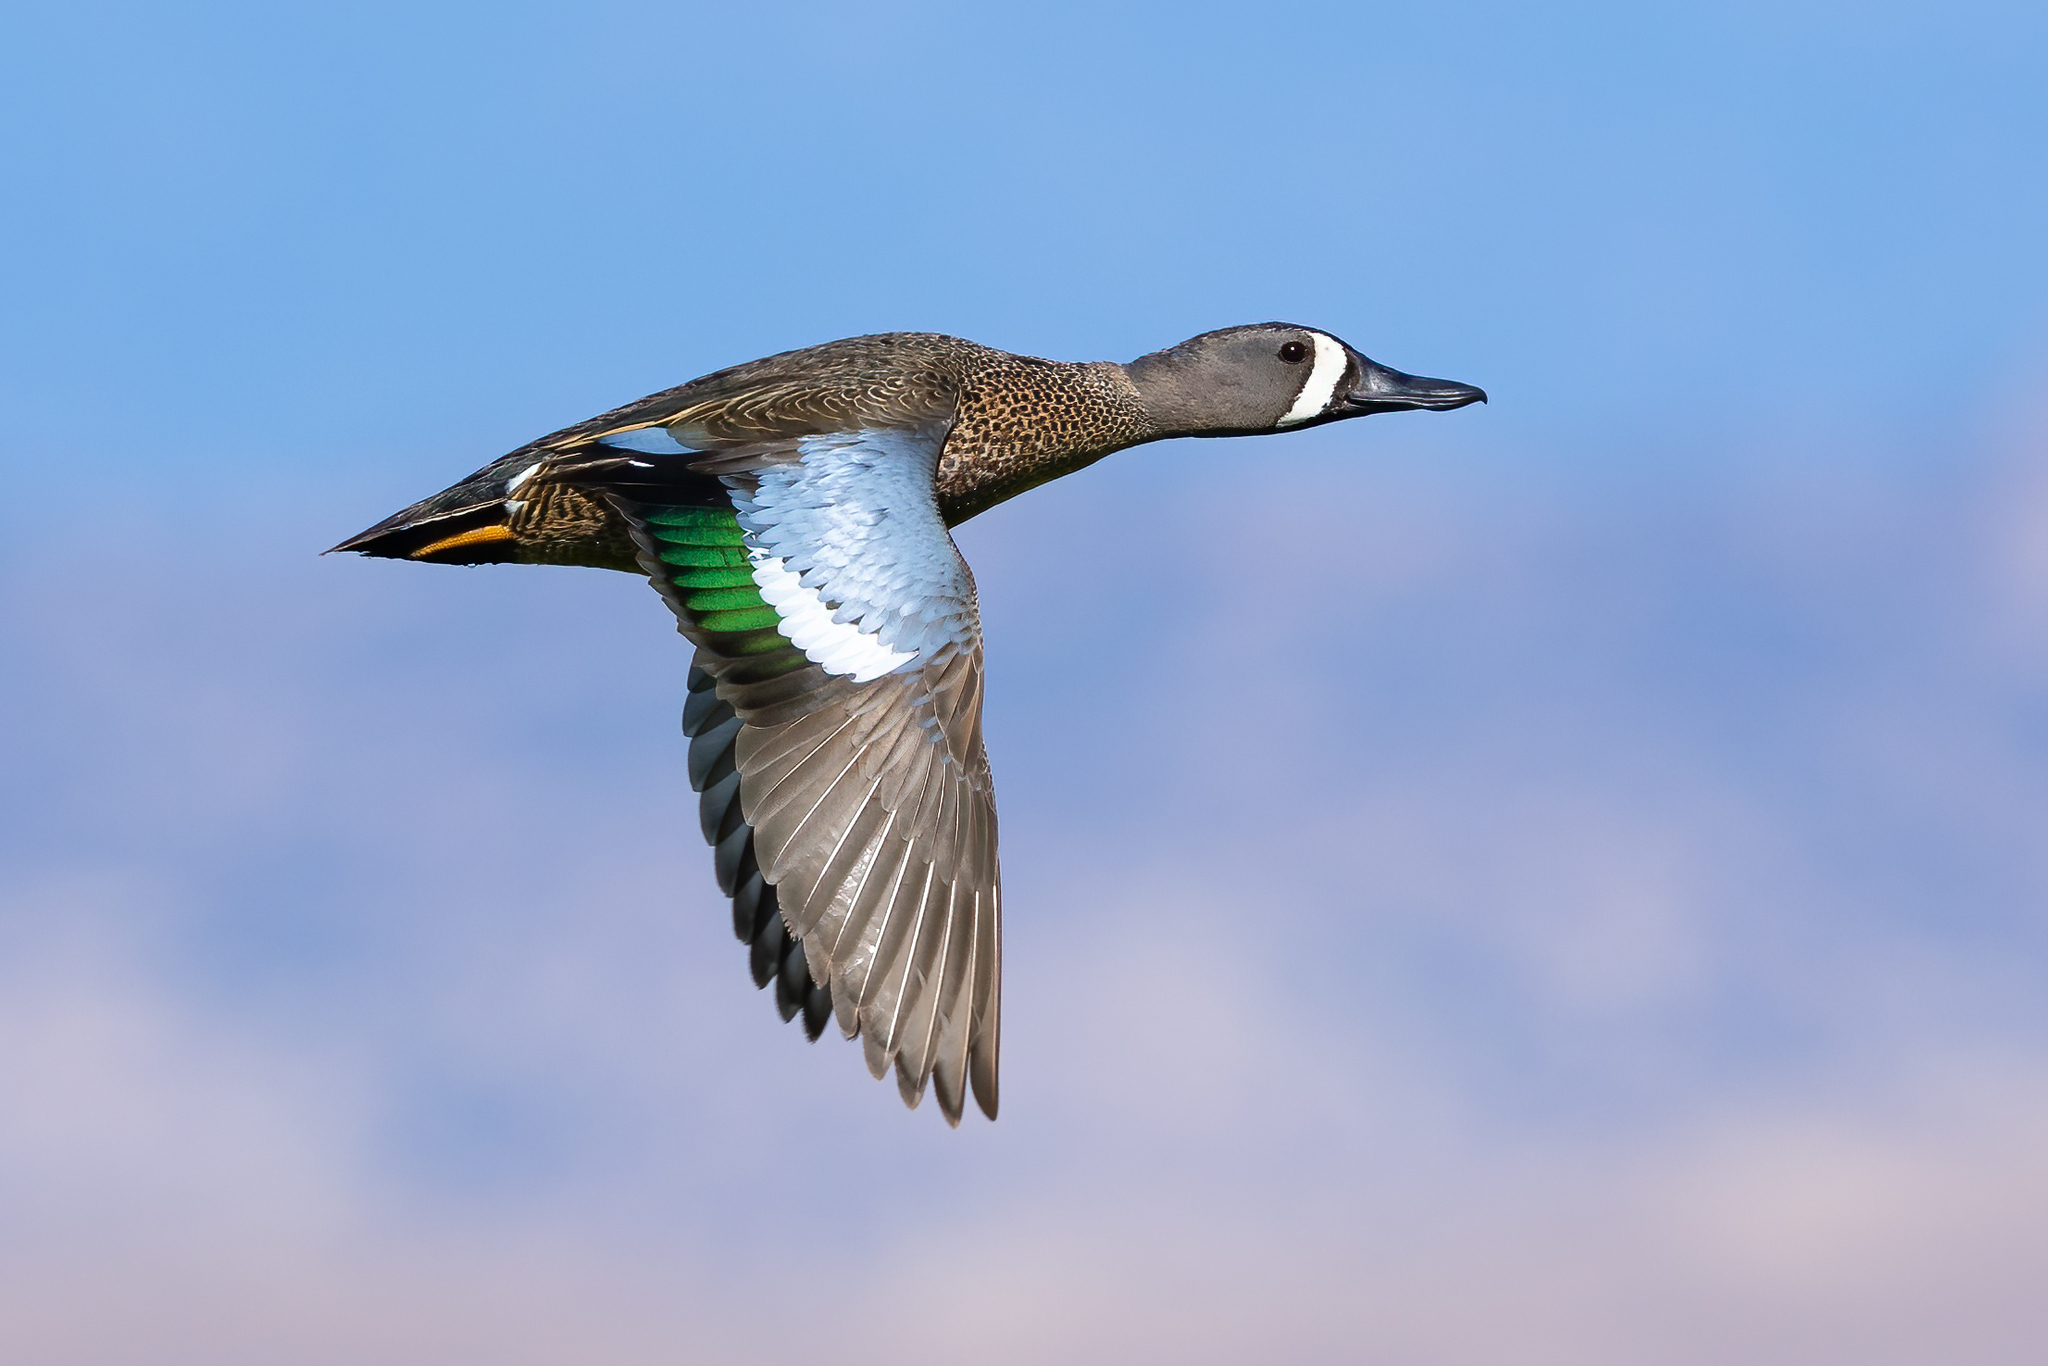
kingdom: Animalia
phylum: Chordata
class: Aves
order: Anseriformes
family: Anatidae
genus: Spatula
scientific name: Spatula discors
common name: Blue-winged teal
